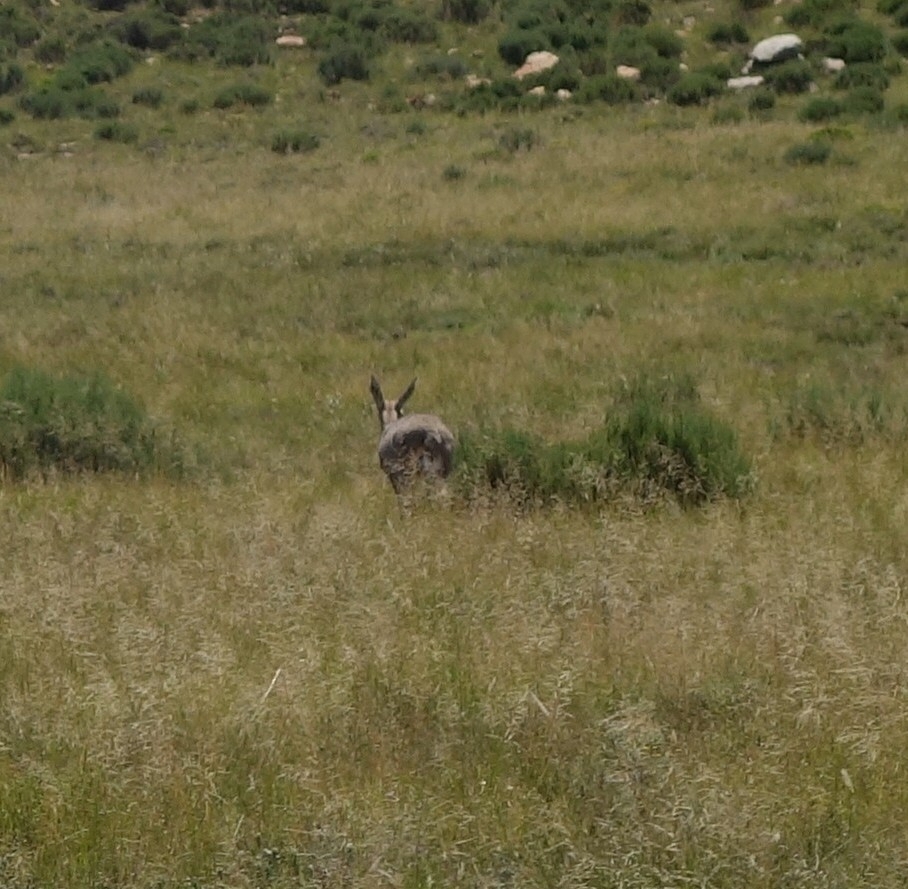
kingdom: Animalia
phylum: Chordata
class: Mammalia
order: Artiodactyla
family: Bovidae
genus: Pelea
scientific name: Pelea capreolus
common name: Common rhebok
